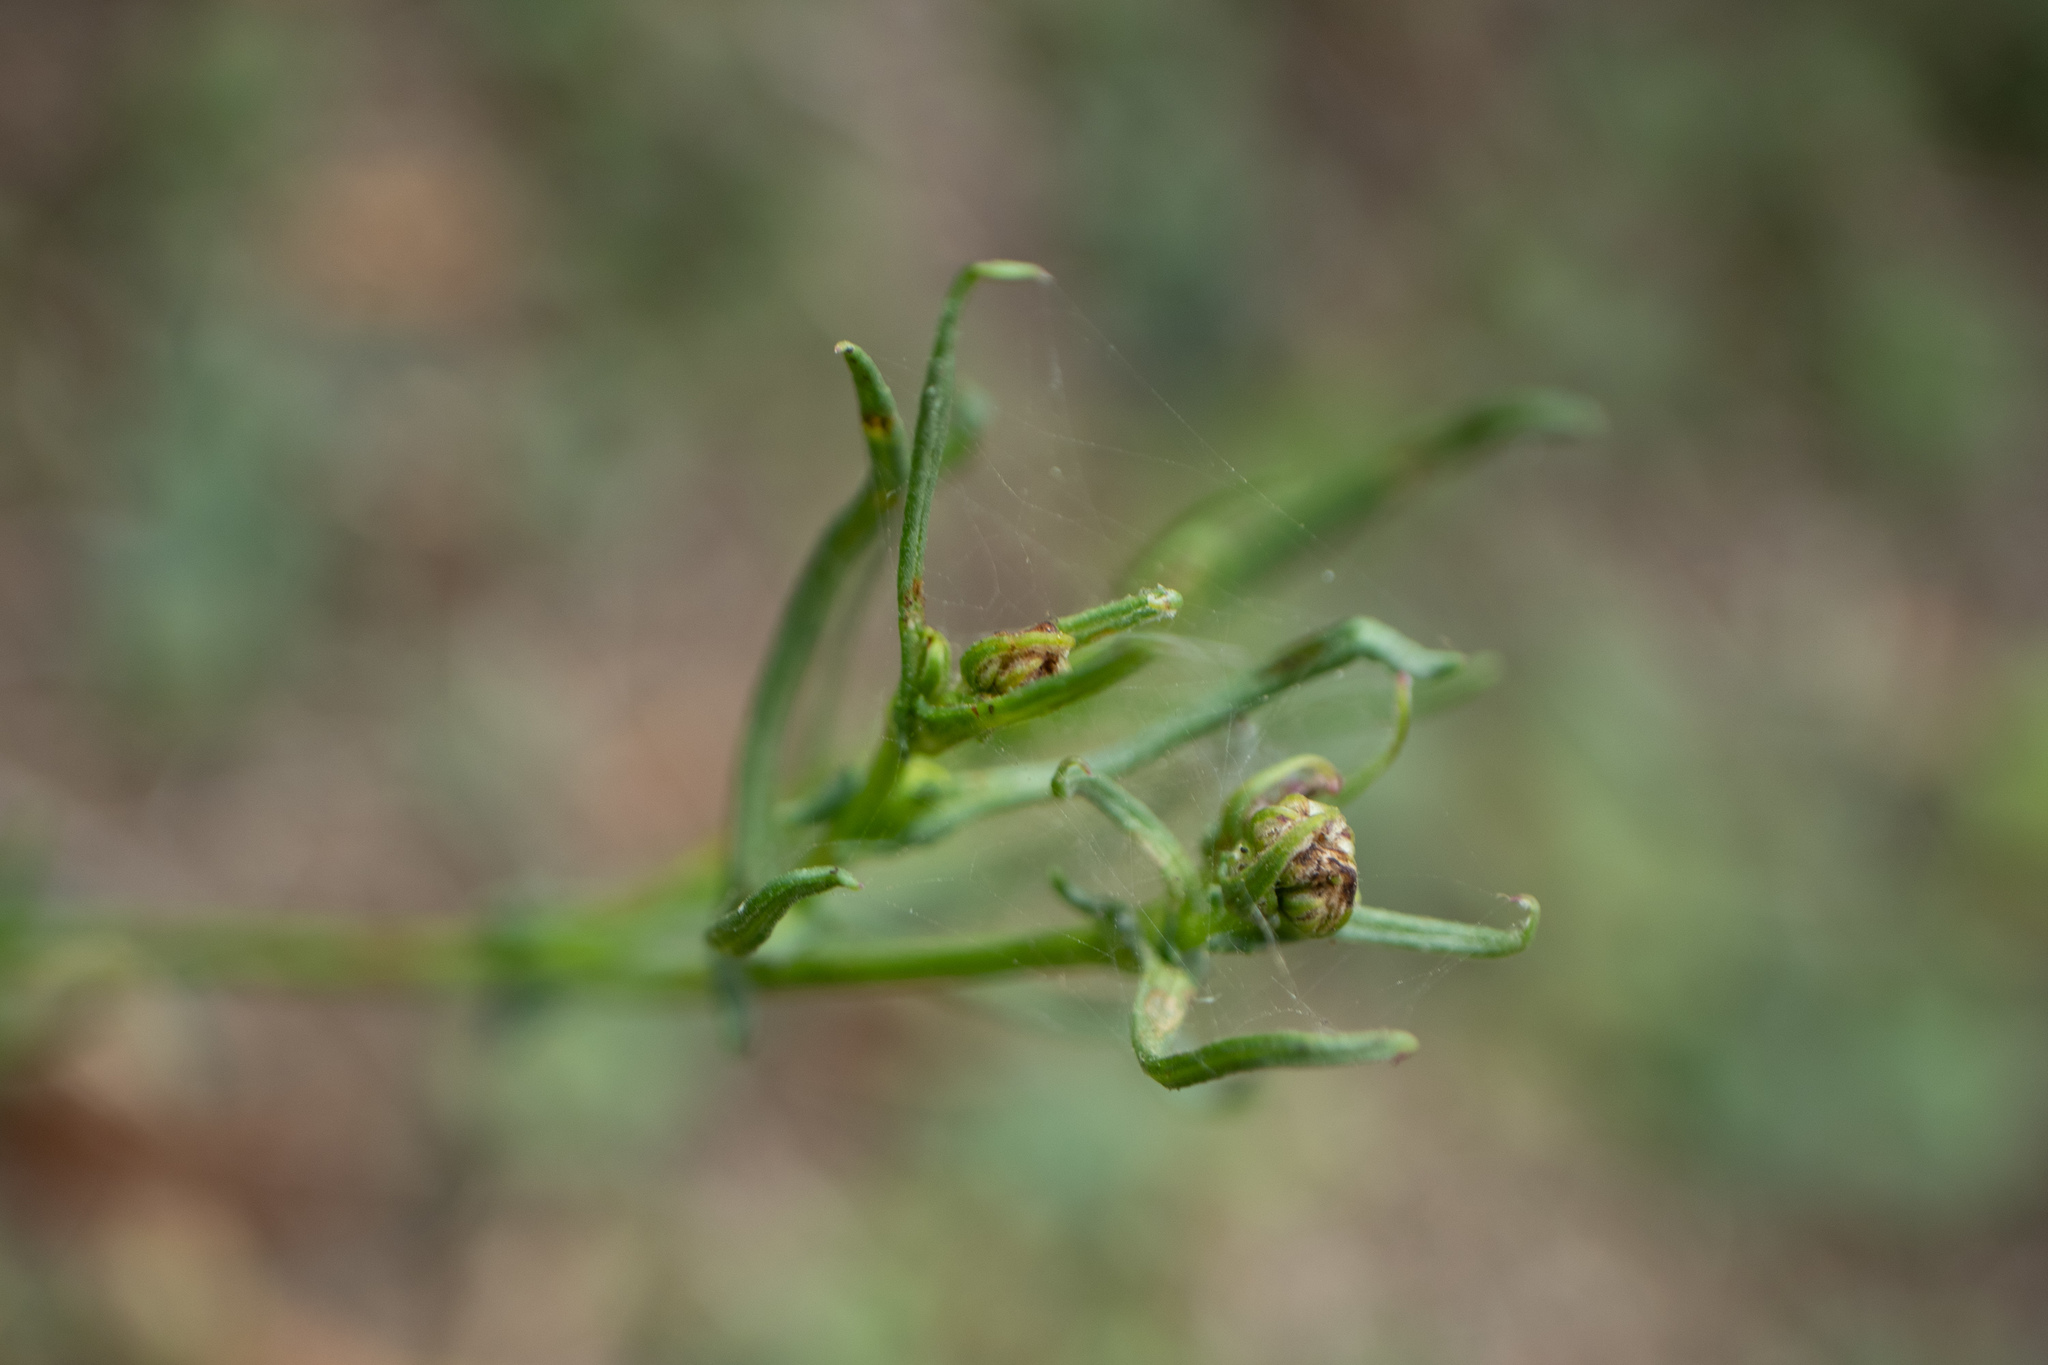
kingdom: Plantae
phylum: Tracheophyta
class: Magnoliopsida
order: Asterales
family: Asteraceae
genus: Senecio
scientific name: Senecio inaequidens
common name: Narrow-leaved ragwort
